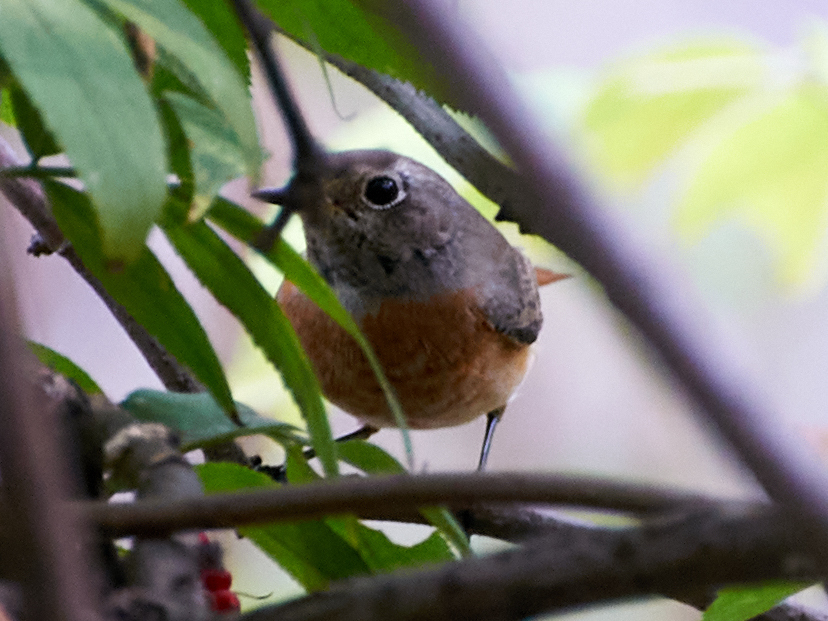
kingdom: Animalia
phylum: Chordata
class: Aves
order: Passeriformes
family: Muscicapidae
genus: Phoenicurus
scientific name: Phoenicurus phoenicurus
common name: Common redstart
